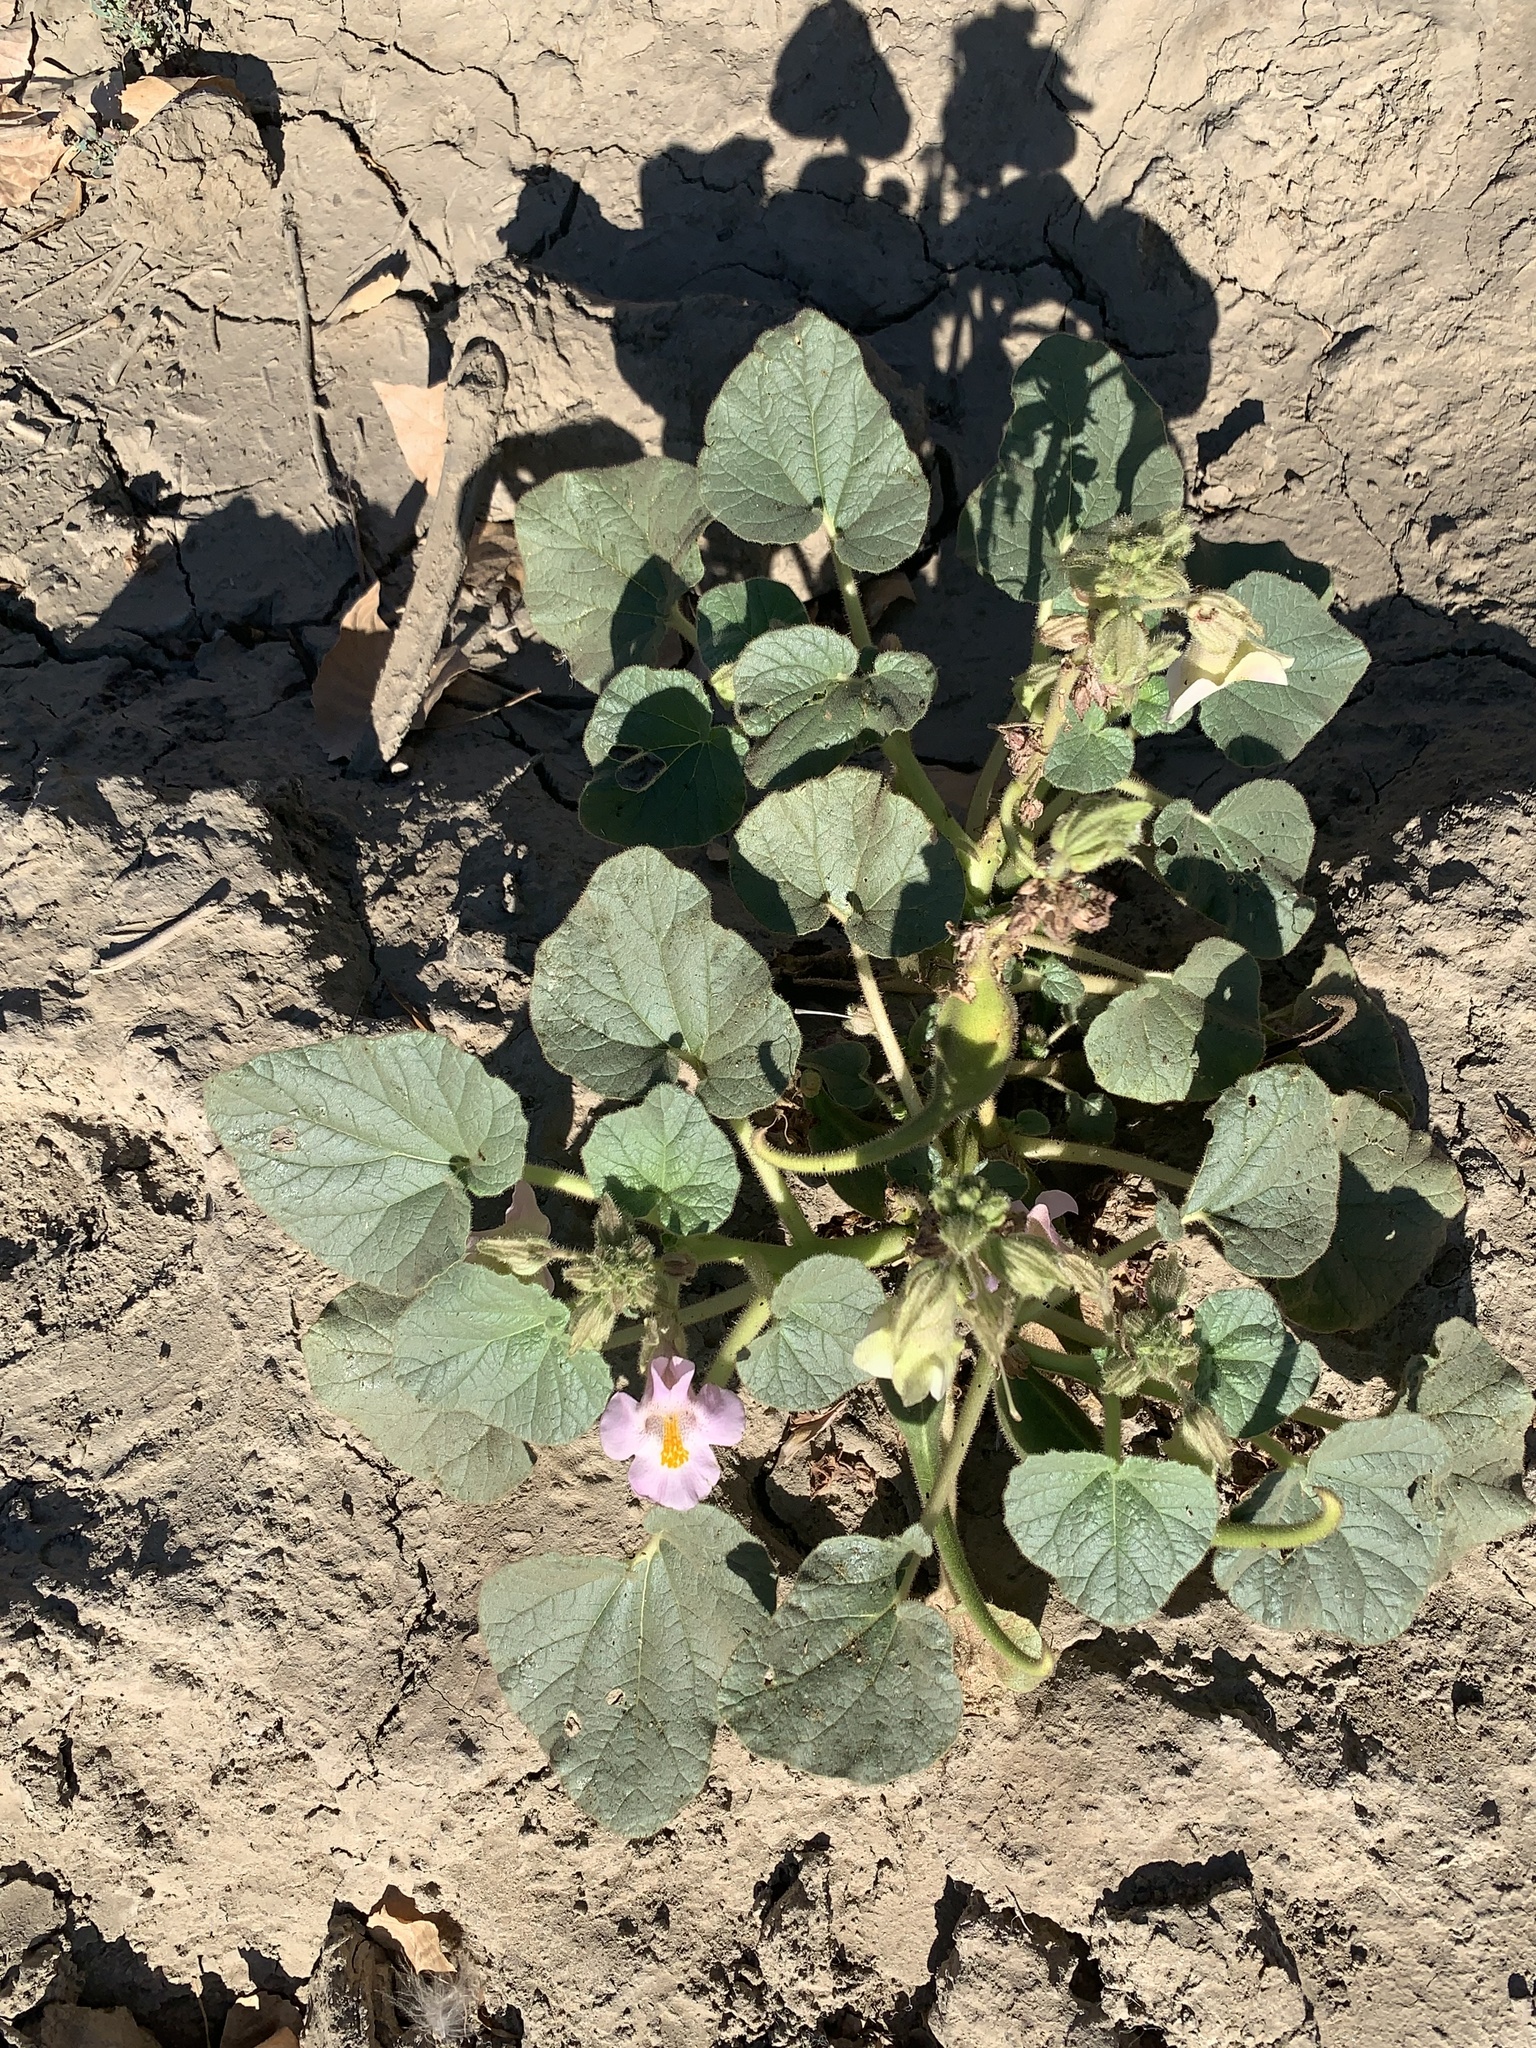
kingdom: Plantae
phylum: Tracheophyta
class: Magnoliopsida
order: Lamiales
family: Martyniaceae
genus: Proboscidea
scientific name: Proboscidea louisianica
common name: Elephant tusks
